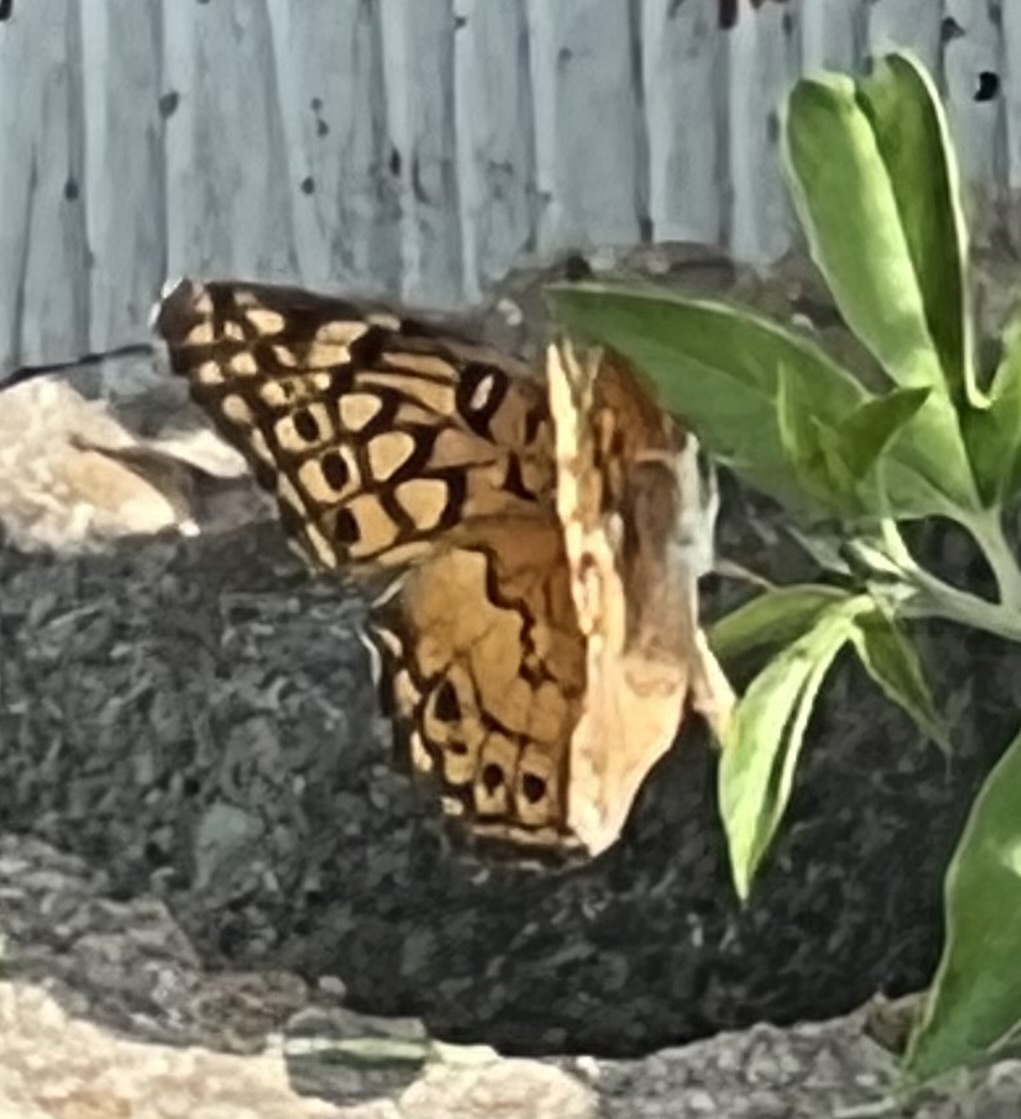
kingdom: Animalia
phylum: Arthropoda
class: Insecta
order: Lepidoptera
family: Nymphalidae
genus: Euptoieta
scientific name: Euptoieta claudia
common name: Variegated fritillary
